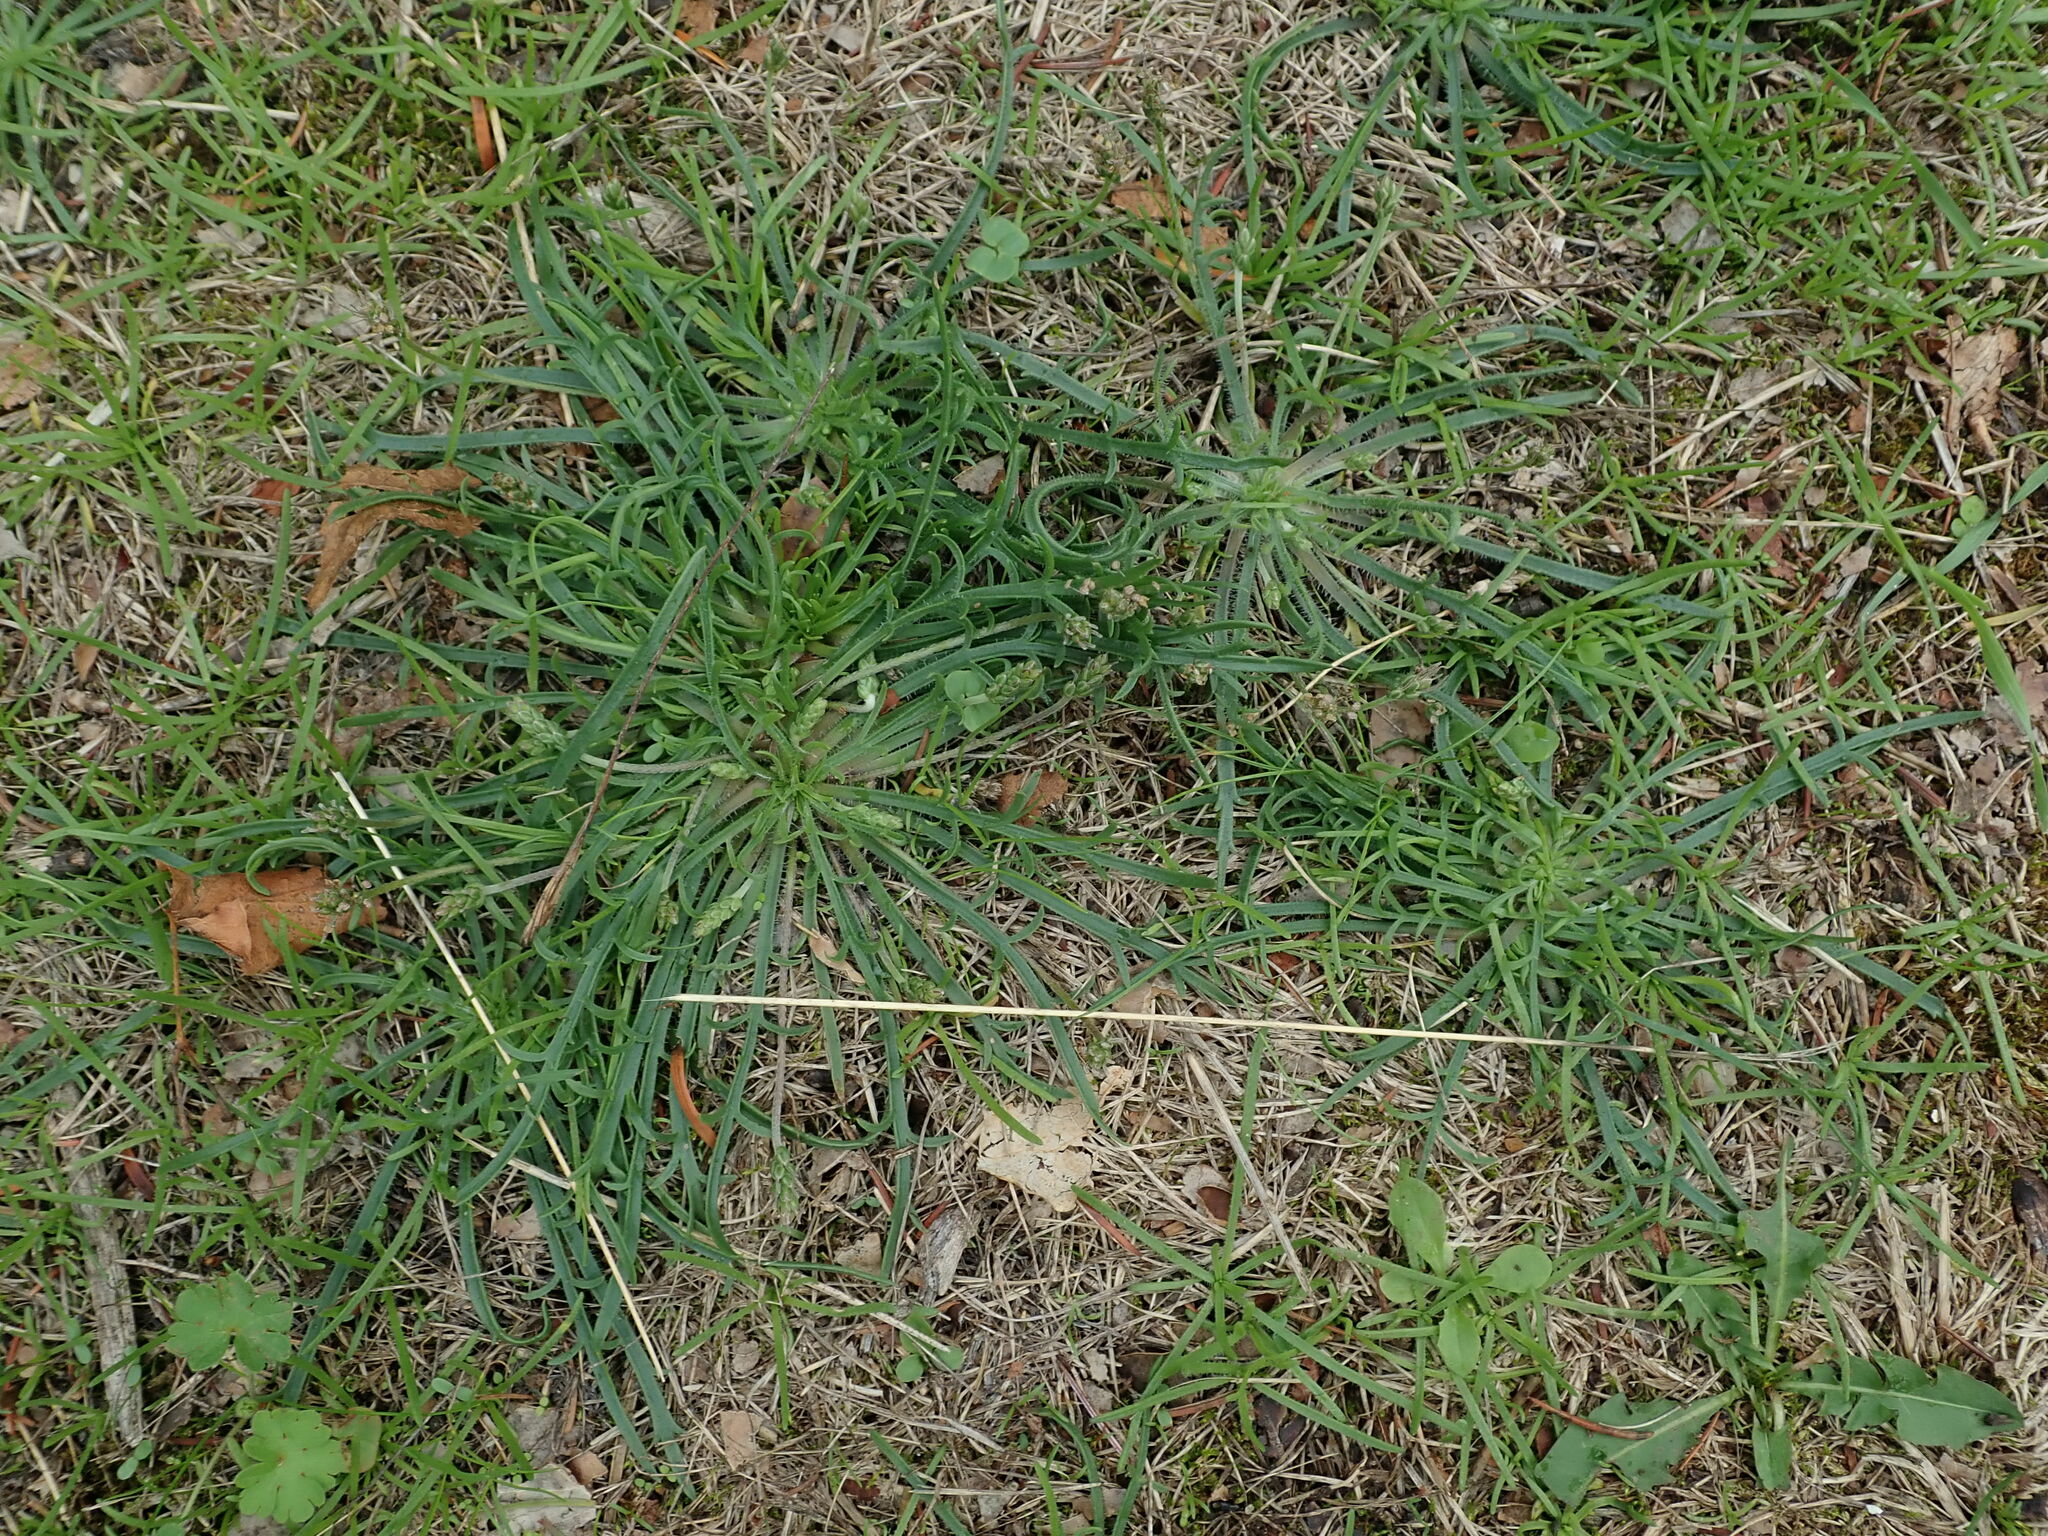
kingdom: Plantae
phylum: Tracheophyta
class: Magnoliopsida
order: Lamiales
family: Plantaginaceae
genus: Plantago
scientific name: Plantago coronopus
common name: Buck's-horn plantain
